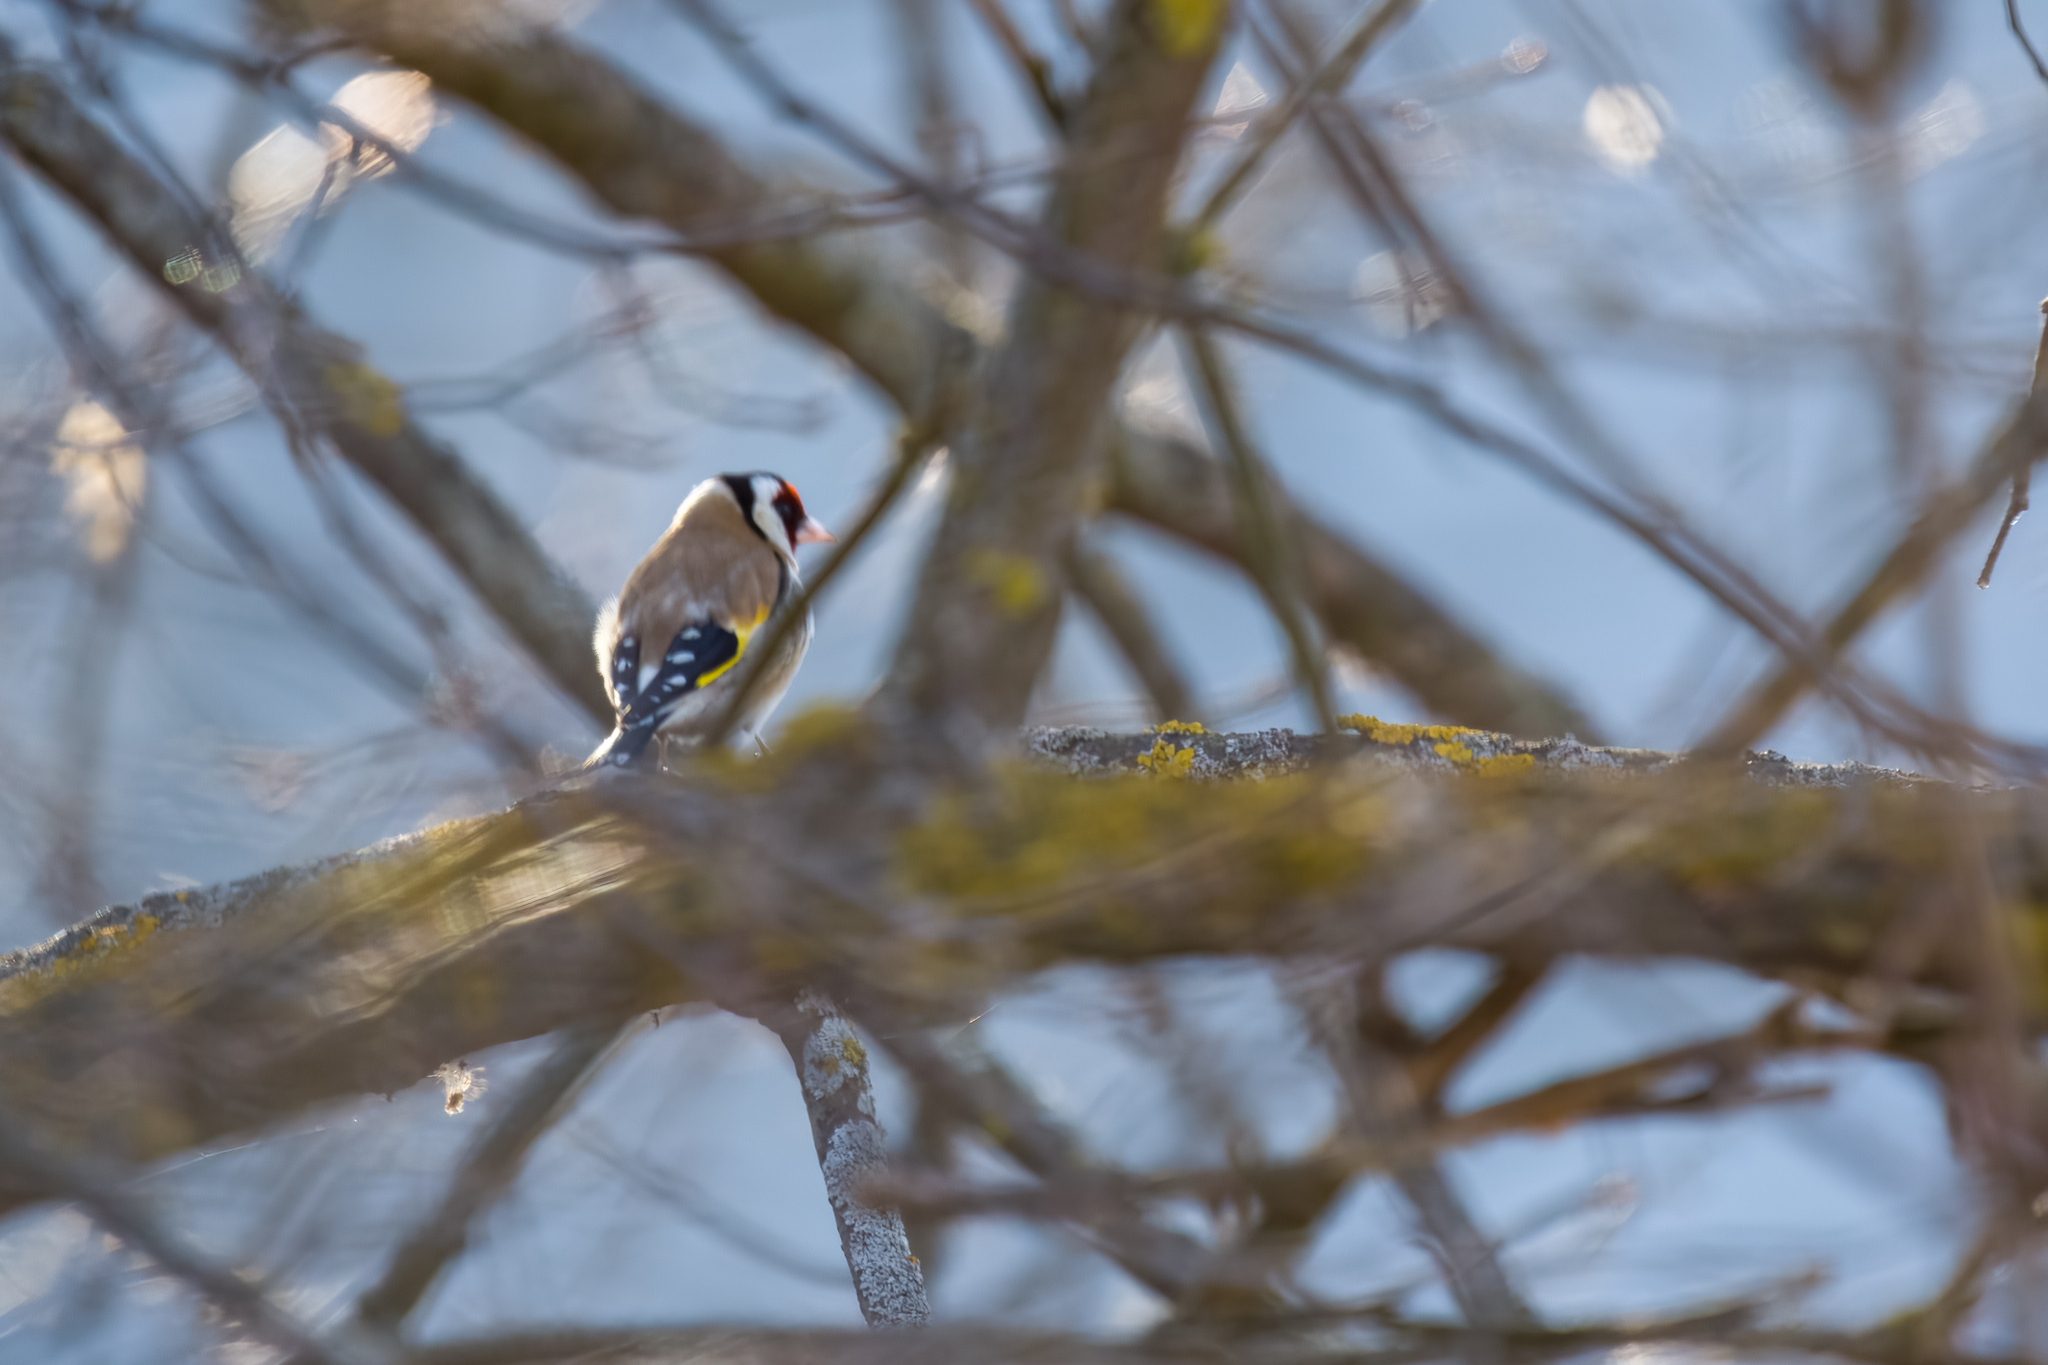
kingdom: Animalia
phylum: Chordata
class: Aves
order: Passeriformes
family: Fringillidae
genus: Carduelis
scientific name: Carduelis carduelis
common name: European goldfinch
